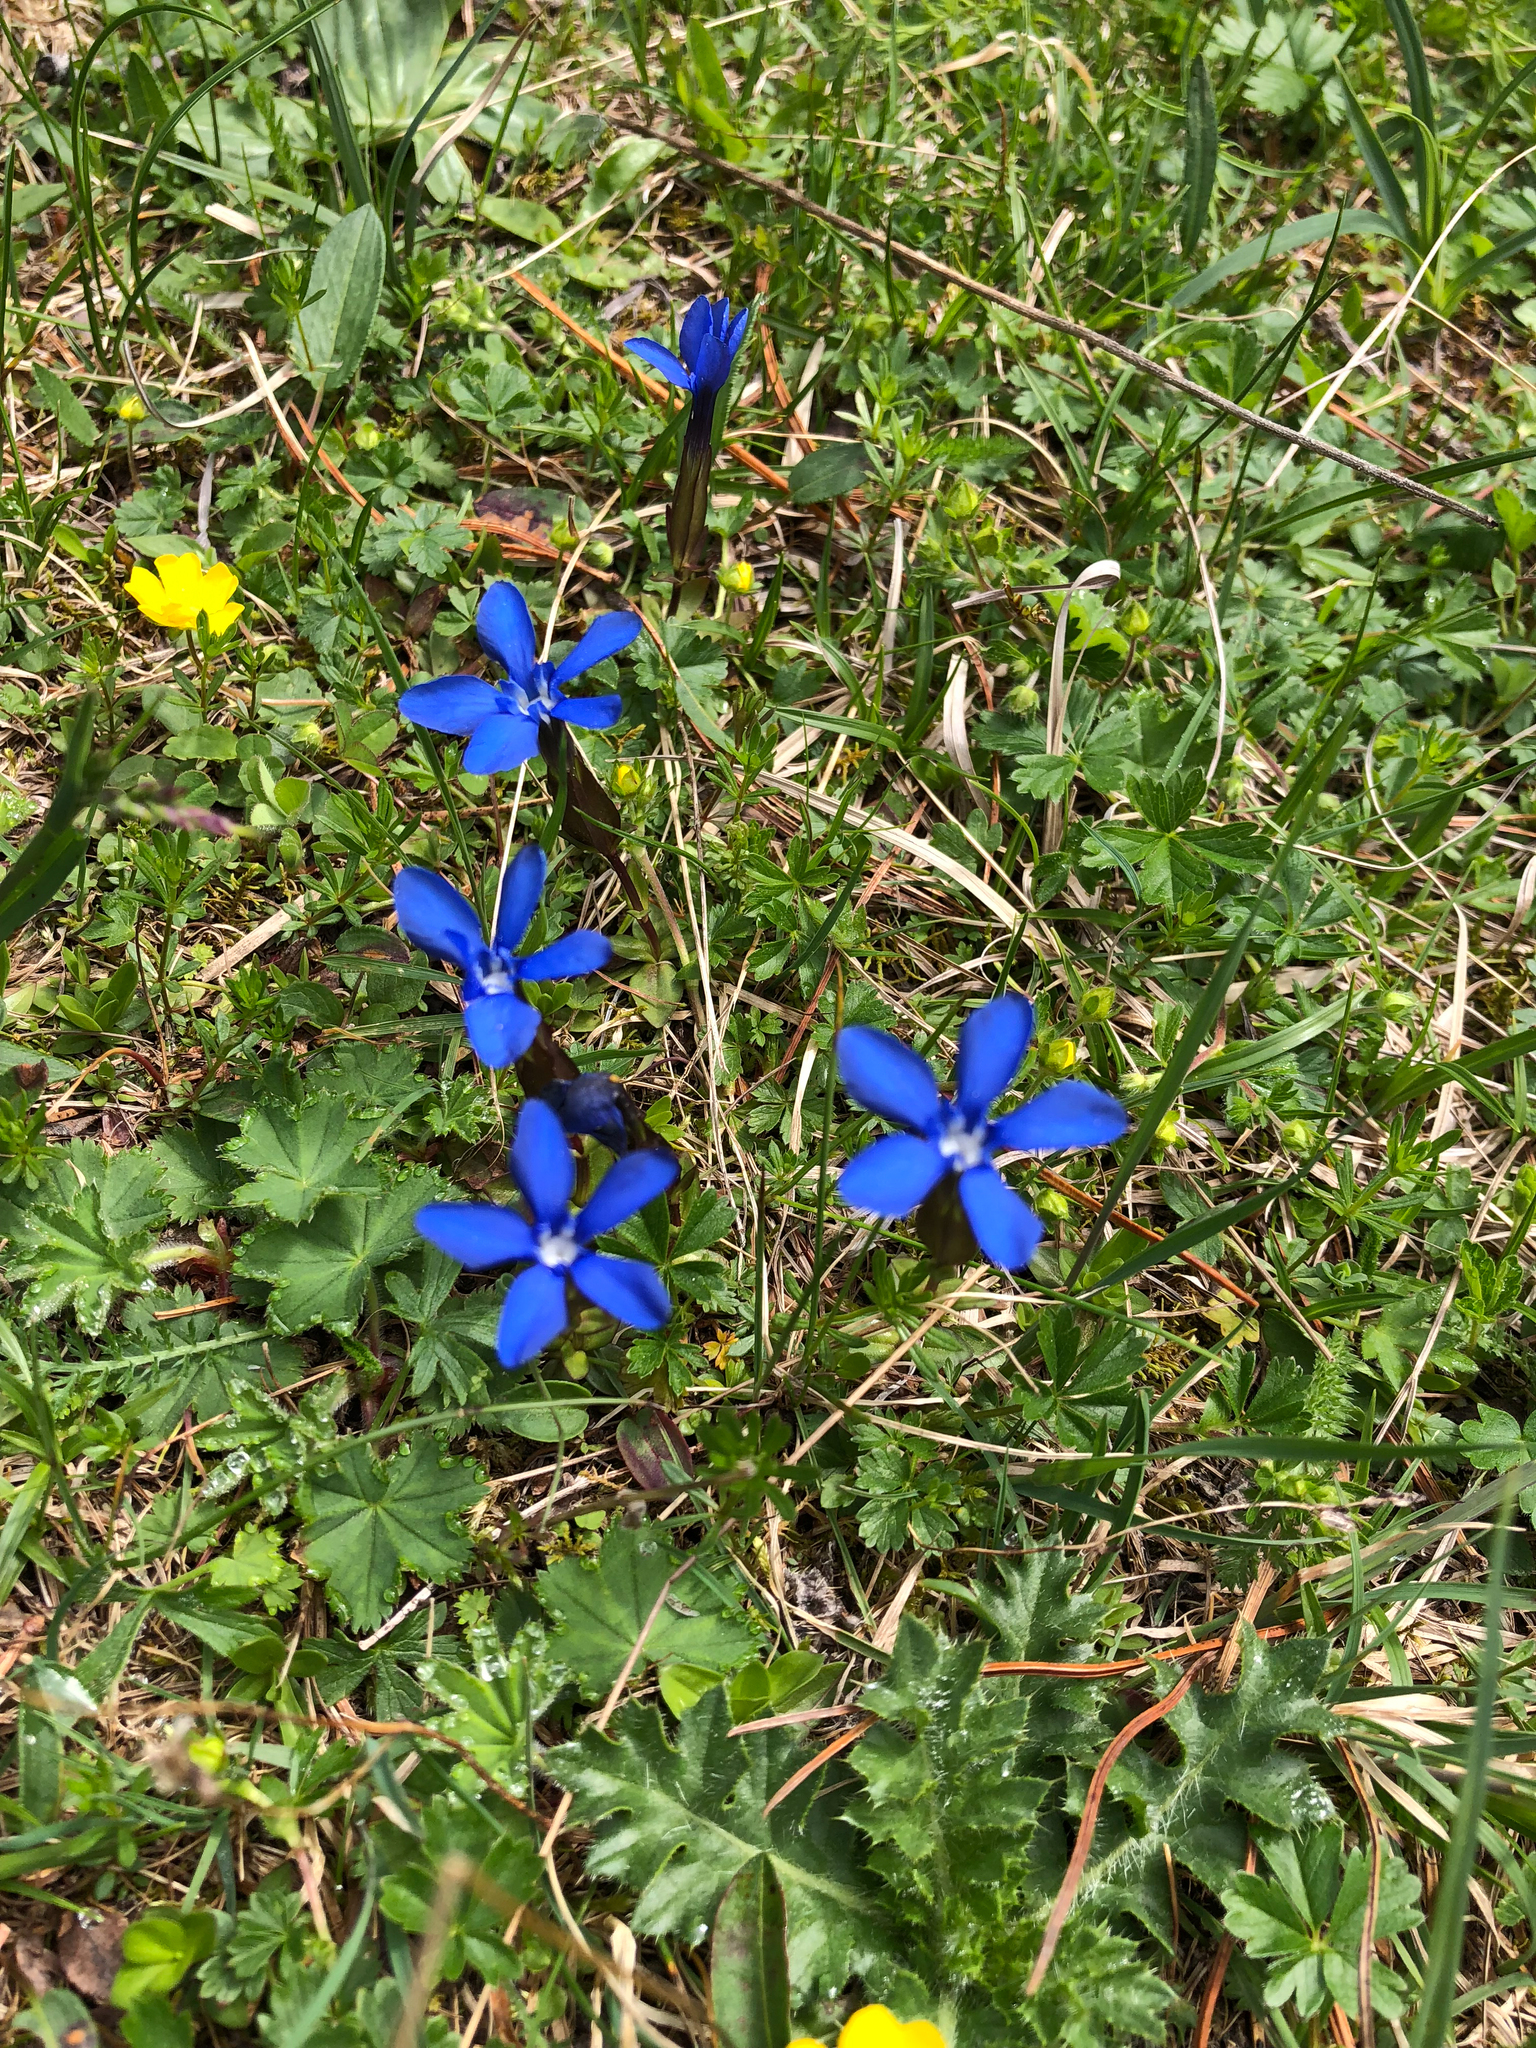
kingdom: Plantae
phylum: Tracheophyta
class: Magnoliopsida
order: Gentianales
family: Gentianaceae
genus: Gentiana
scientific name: Gentiana verna
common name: Spring gentian
